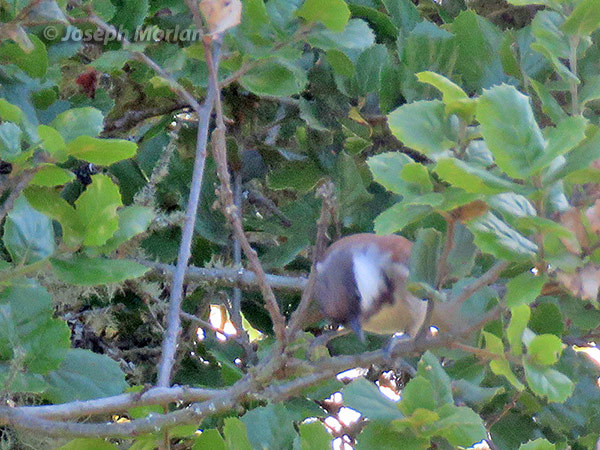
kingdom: Animalia
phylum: Chordata
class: Aves
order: Passeriformes
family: Paridae
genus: Poecile
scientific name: Poecile rufescens
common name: Chestnut-backed chickadee
